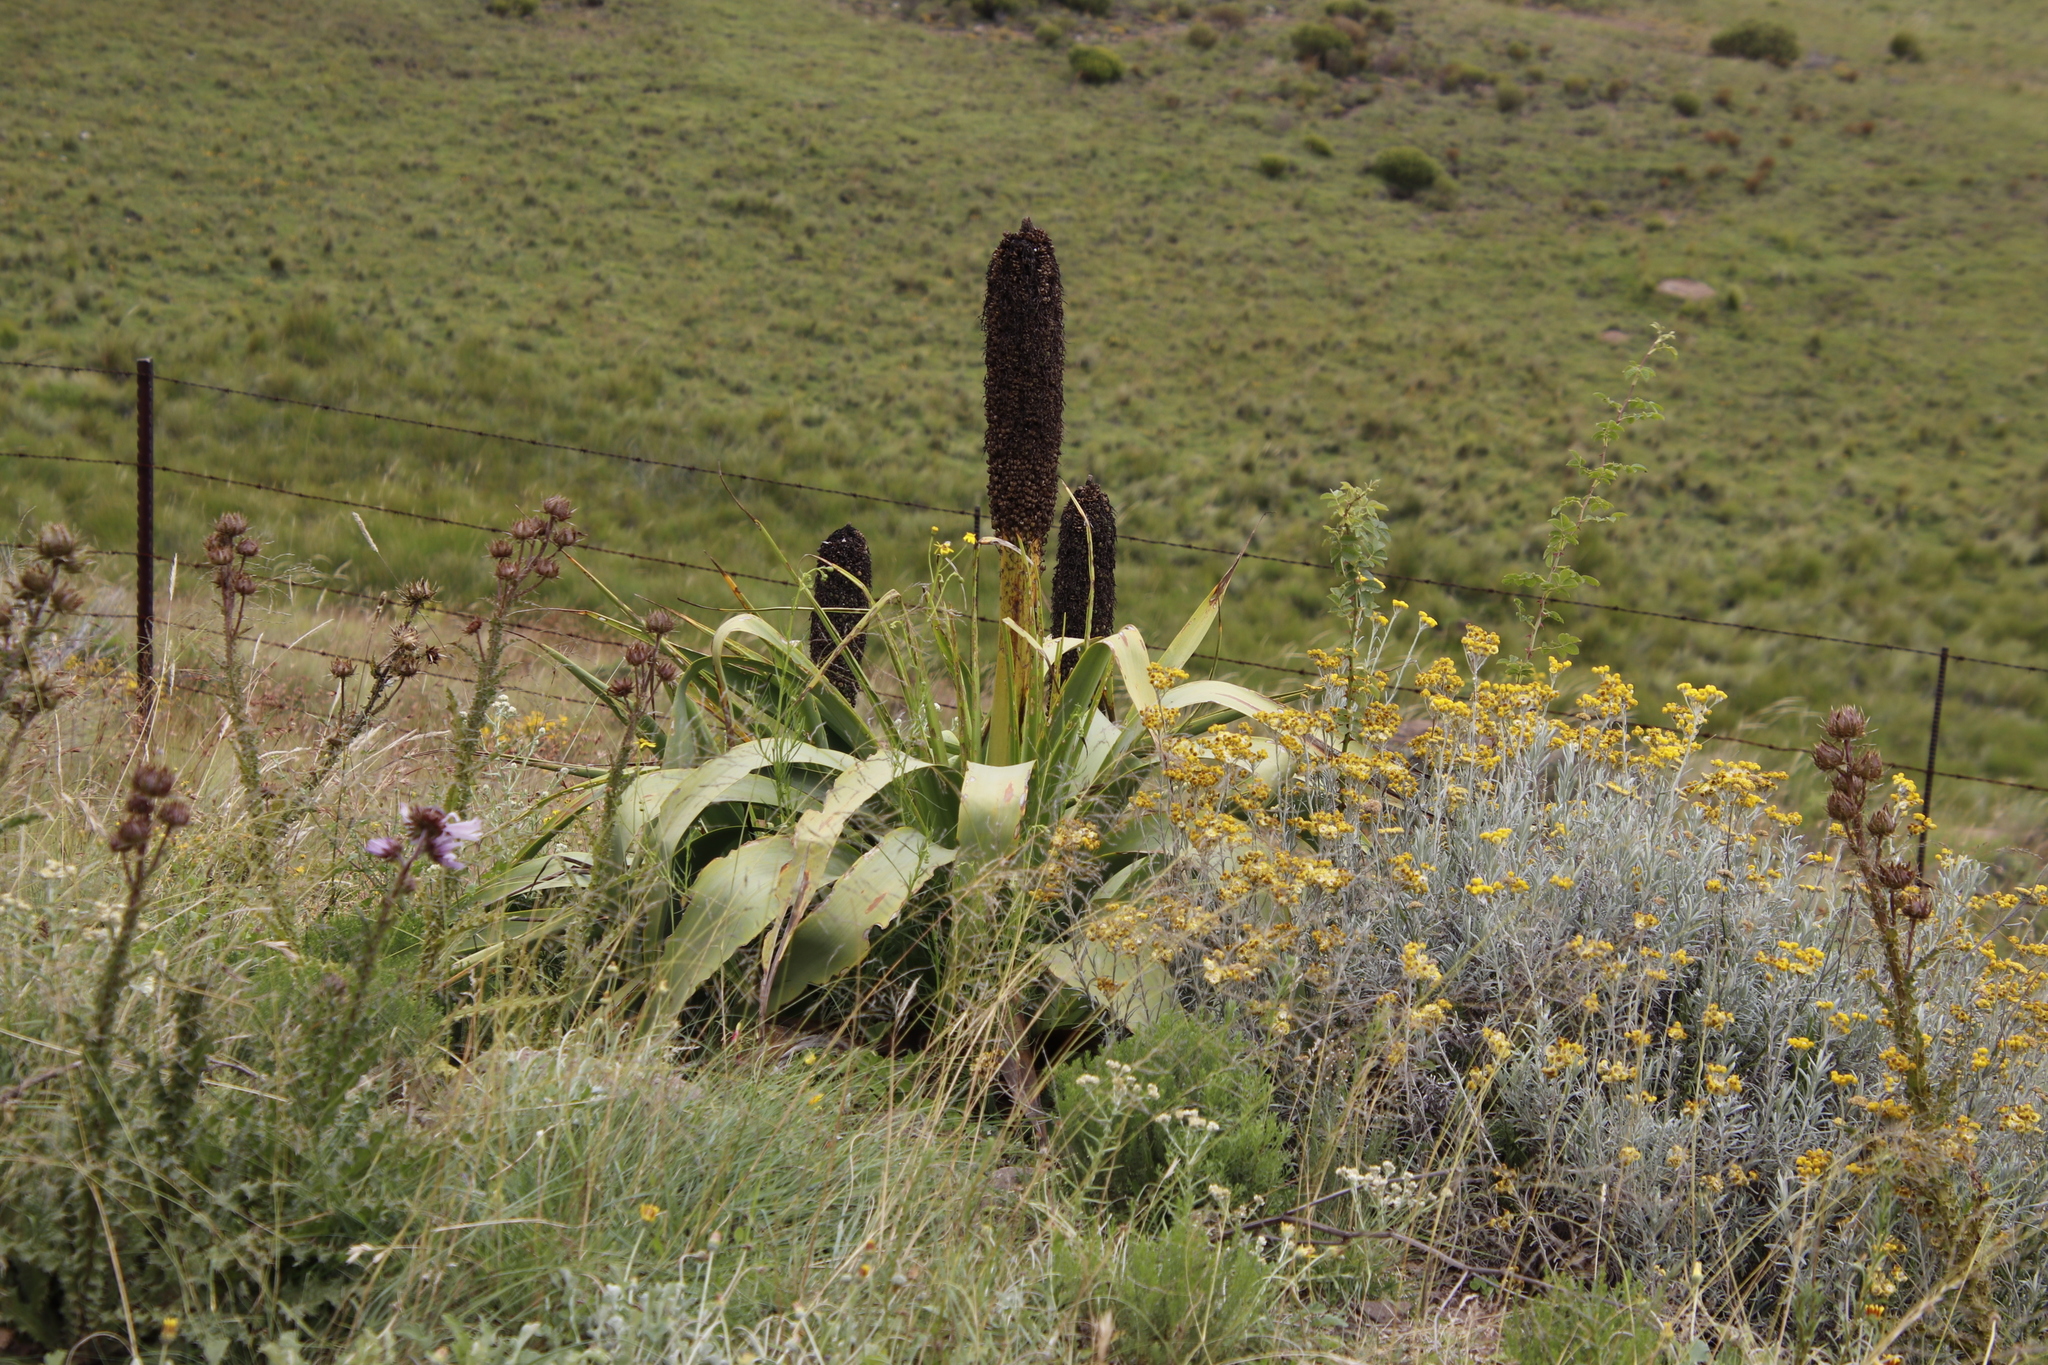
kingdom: Plantae
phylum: Tracheophyta
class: Liliopsida
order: Asparagales
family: Asphodelaceae
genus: Kniphofia
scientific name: Kniphofia northiae
